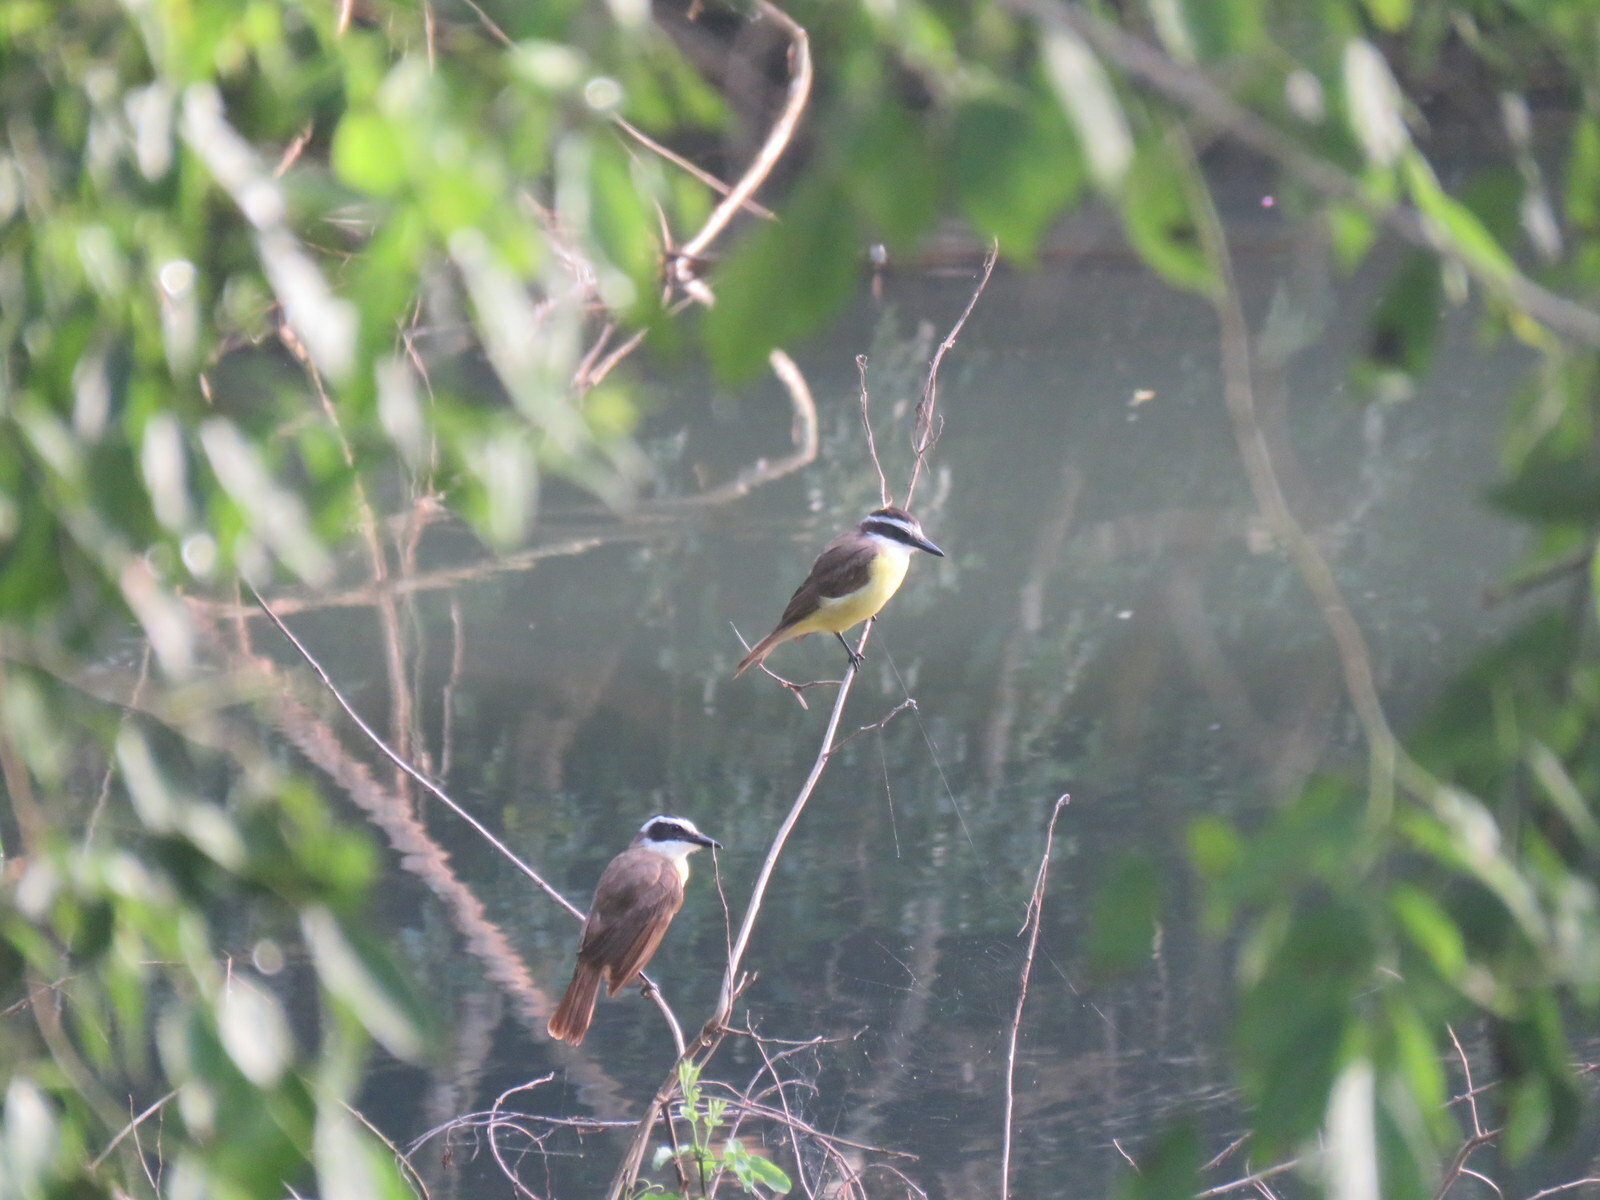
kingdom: Animalia
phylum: Chordata
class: Aves
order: Passeriformes
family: Tyrannidae
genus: Pitangus
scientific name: Pitangus sulphuratus
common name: Great kiskadee
